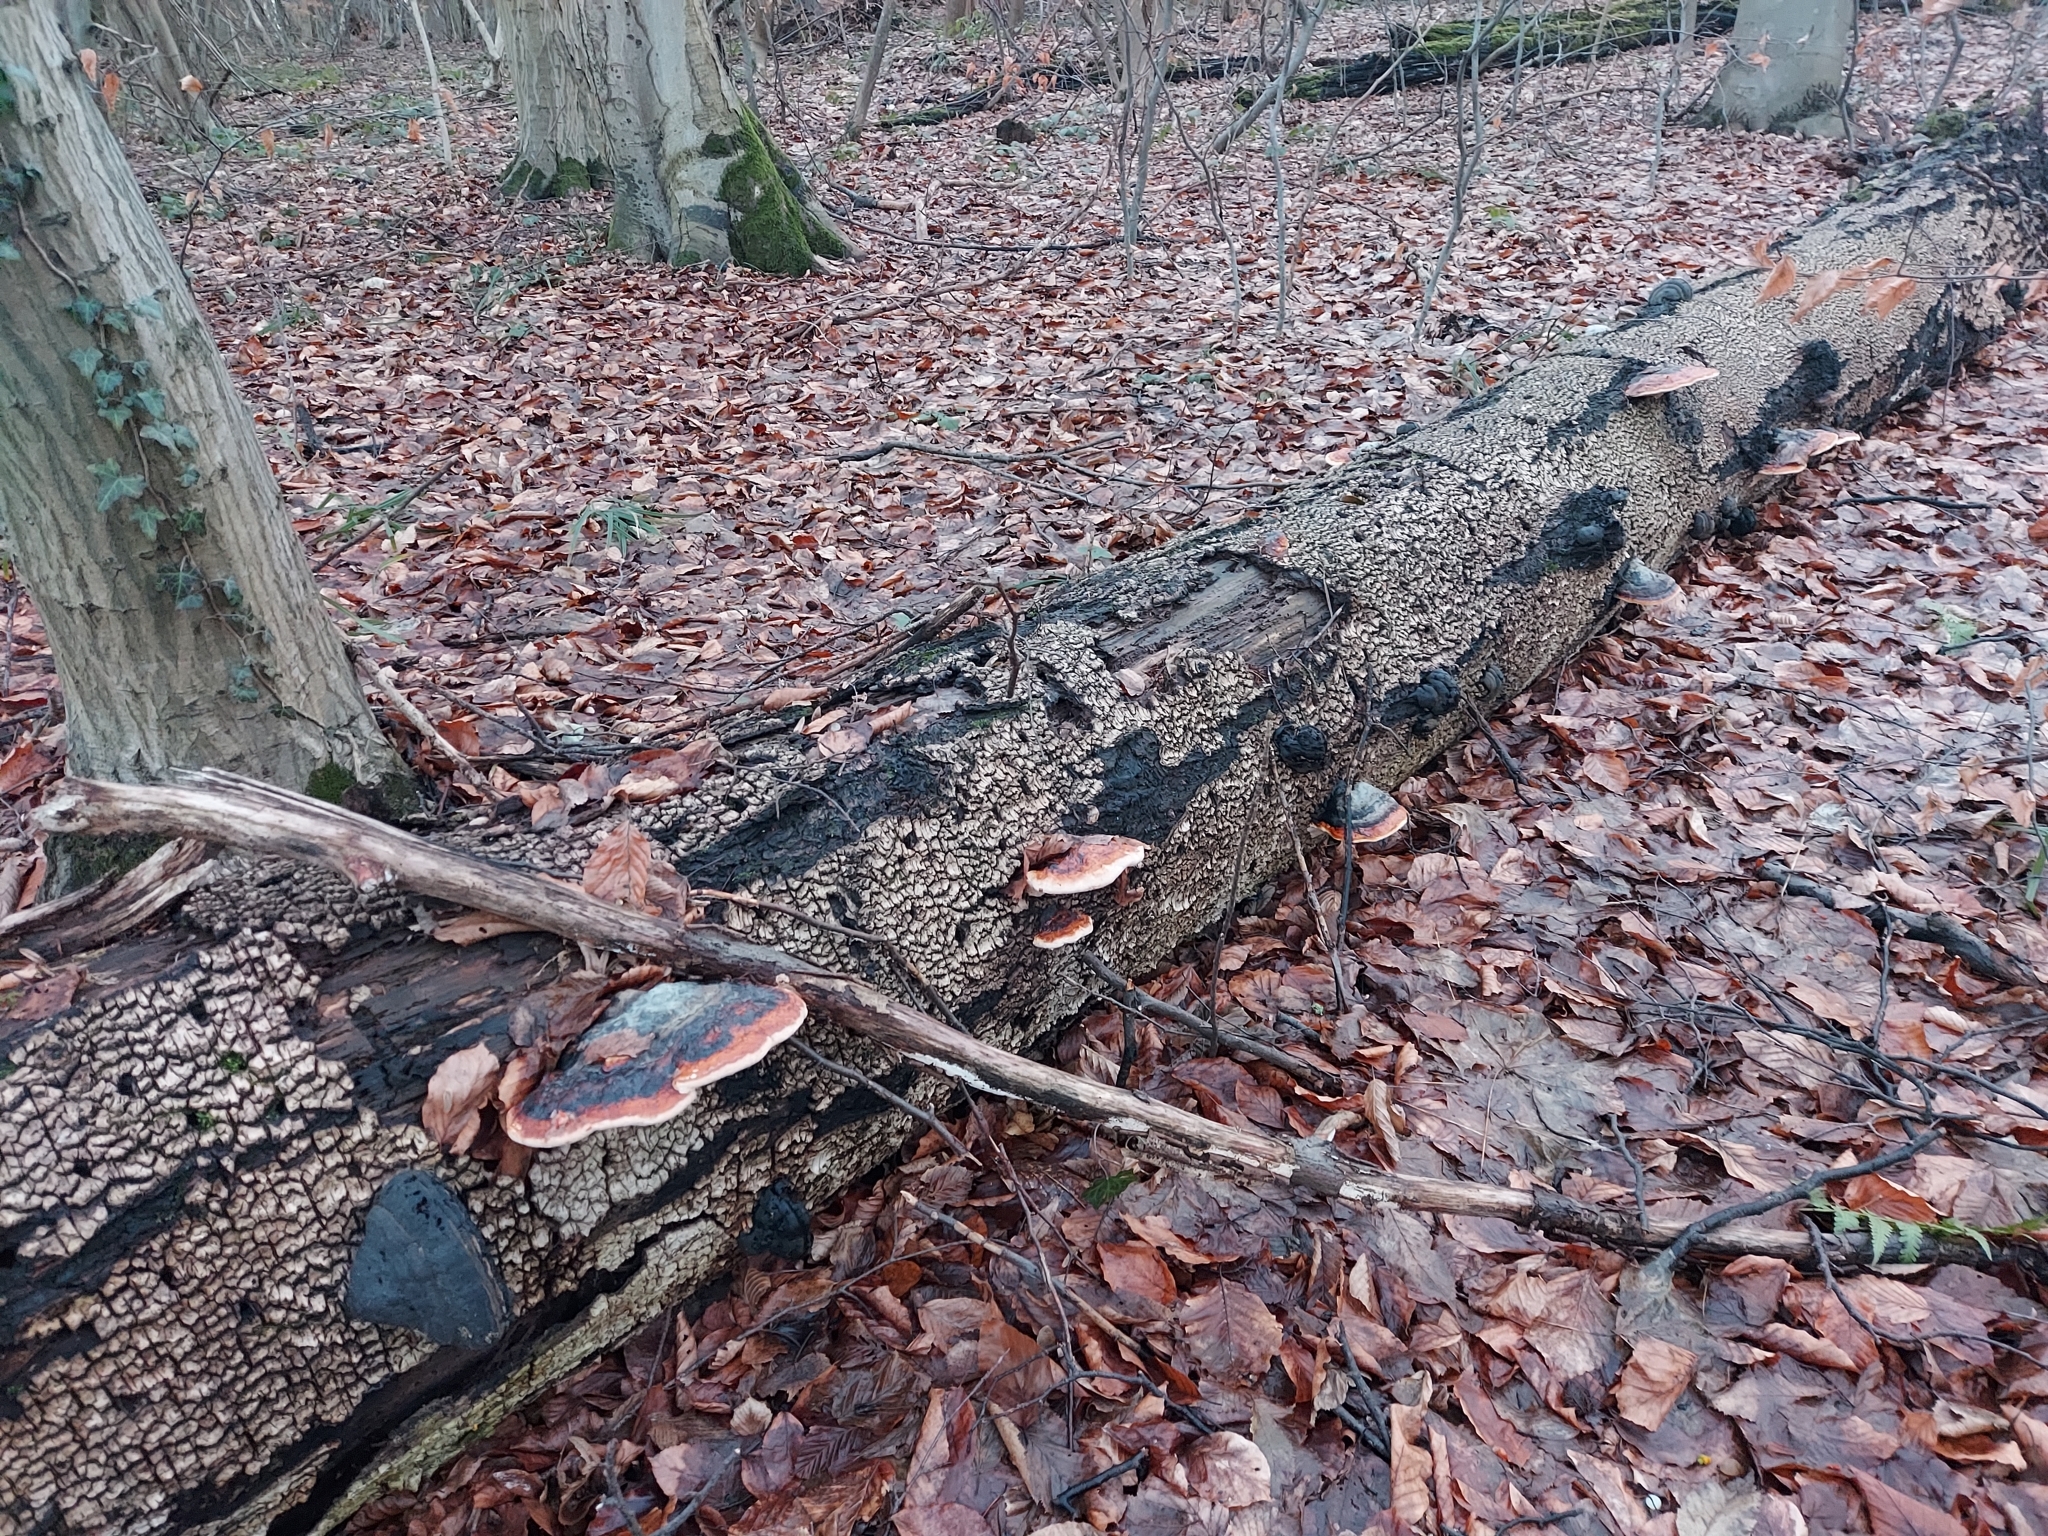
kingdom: Fungi
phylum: Basidiomycota
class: Agaricomycetes
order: Polyporales
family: Fomitopsidaceae
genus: Fomitopsis
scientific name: Fomitopsis pinicola
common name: Red-belted bracket
